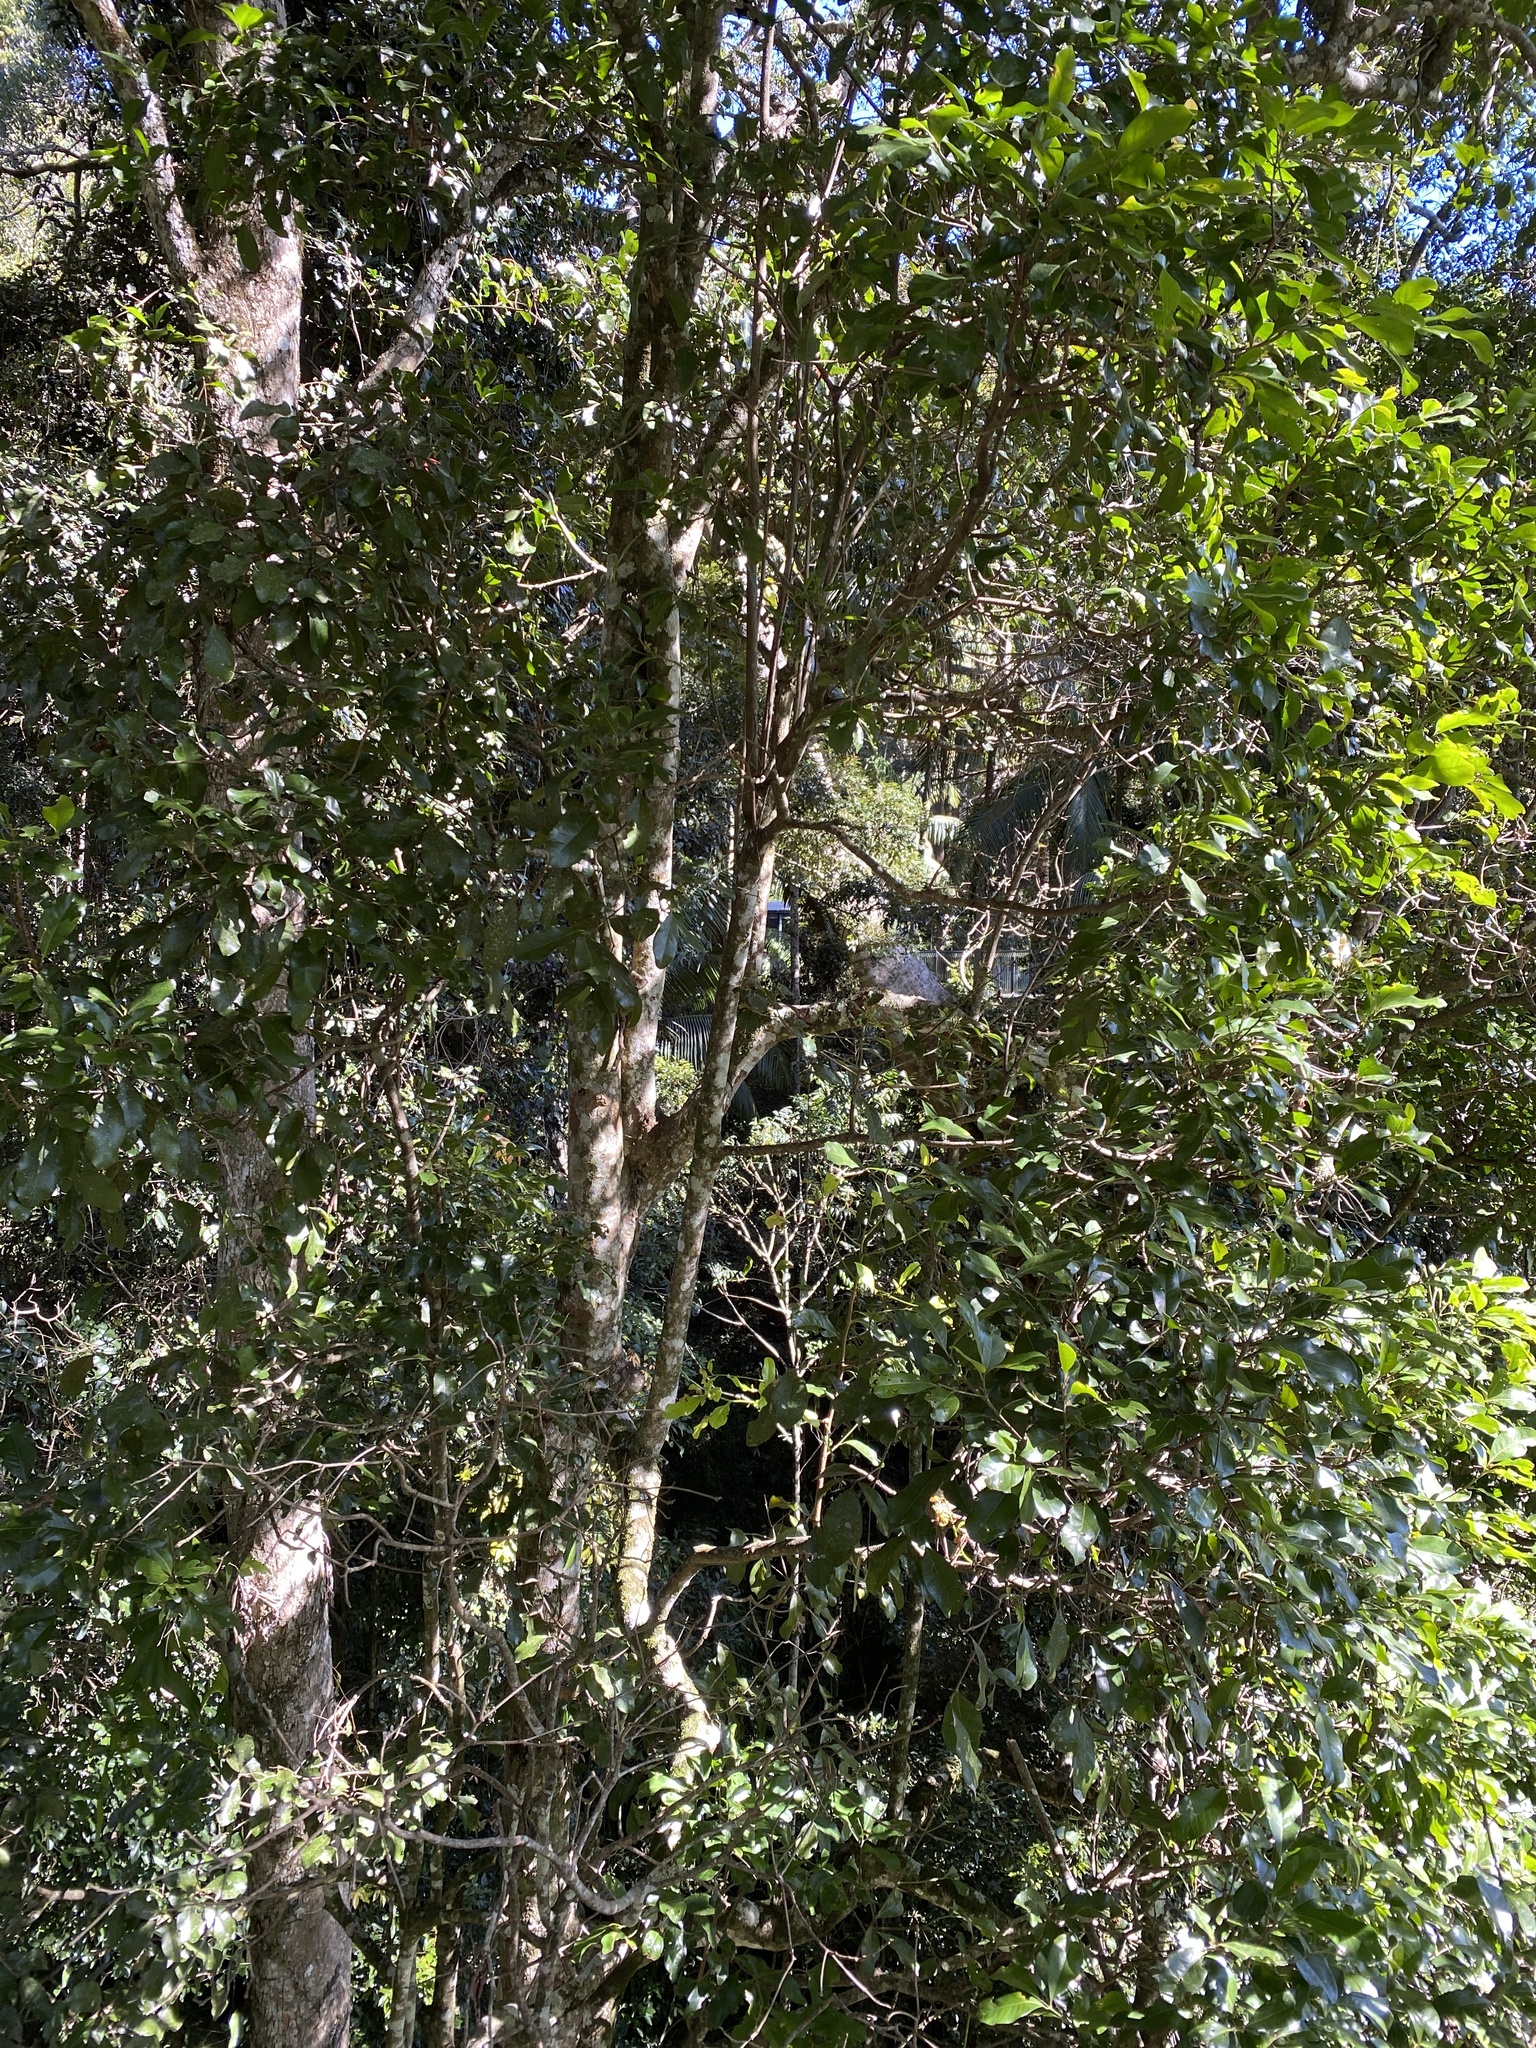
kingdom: Plantae
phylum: Tracheophyta
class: Magnoliopsida
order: Laurales
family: Lauraceae
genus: Beilschmiedia
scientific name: Beilschmiedia obtusifolia
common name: Queensland-sassafras
